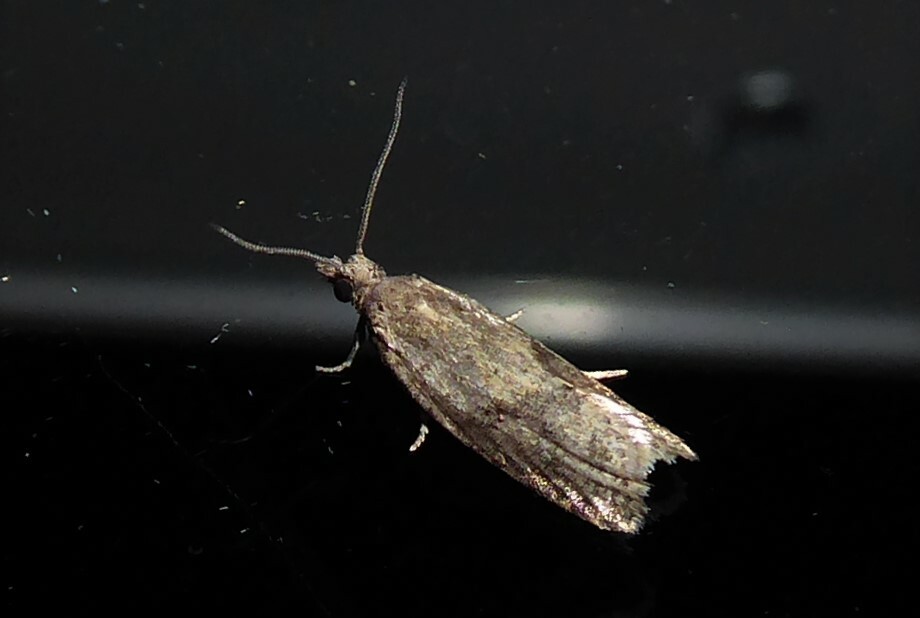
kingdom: Animalia
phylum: Arthropoda
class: Insecta
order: Lepidoptera
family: Tortricidae
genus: Capua
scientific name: Capua semiferana
